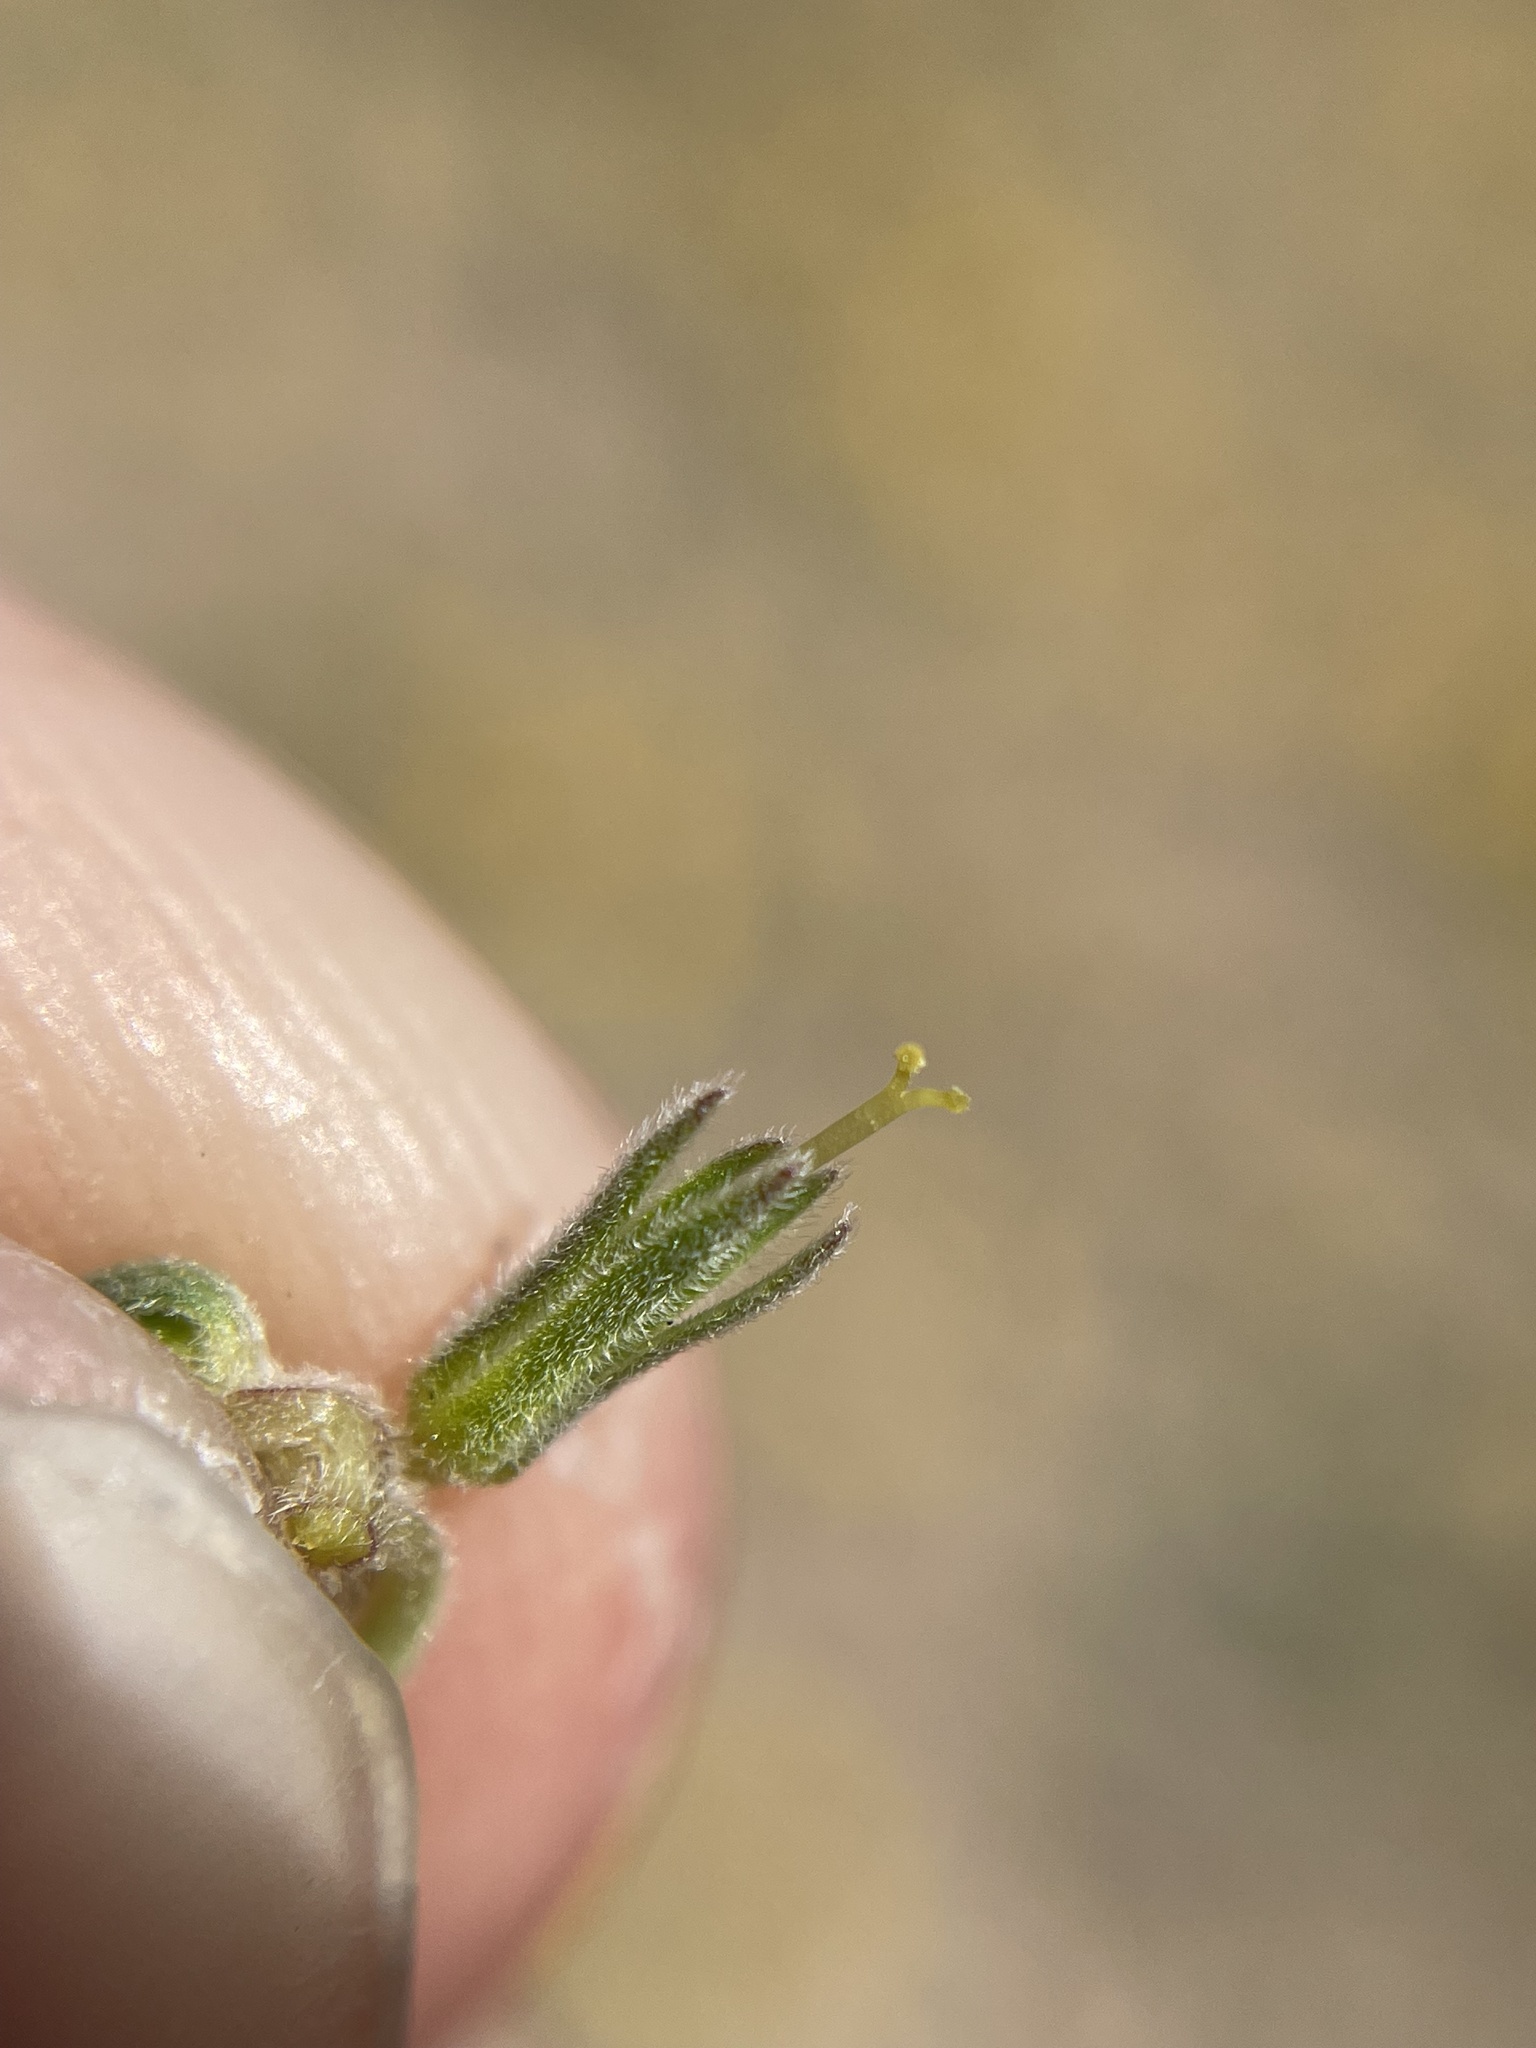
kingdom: Plantae
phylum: Tracheophyta
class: Magnoliopsida
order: Boraginales
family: Namaceae
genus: Nama
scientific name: Nama aretioides
